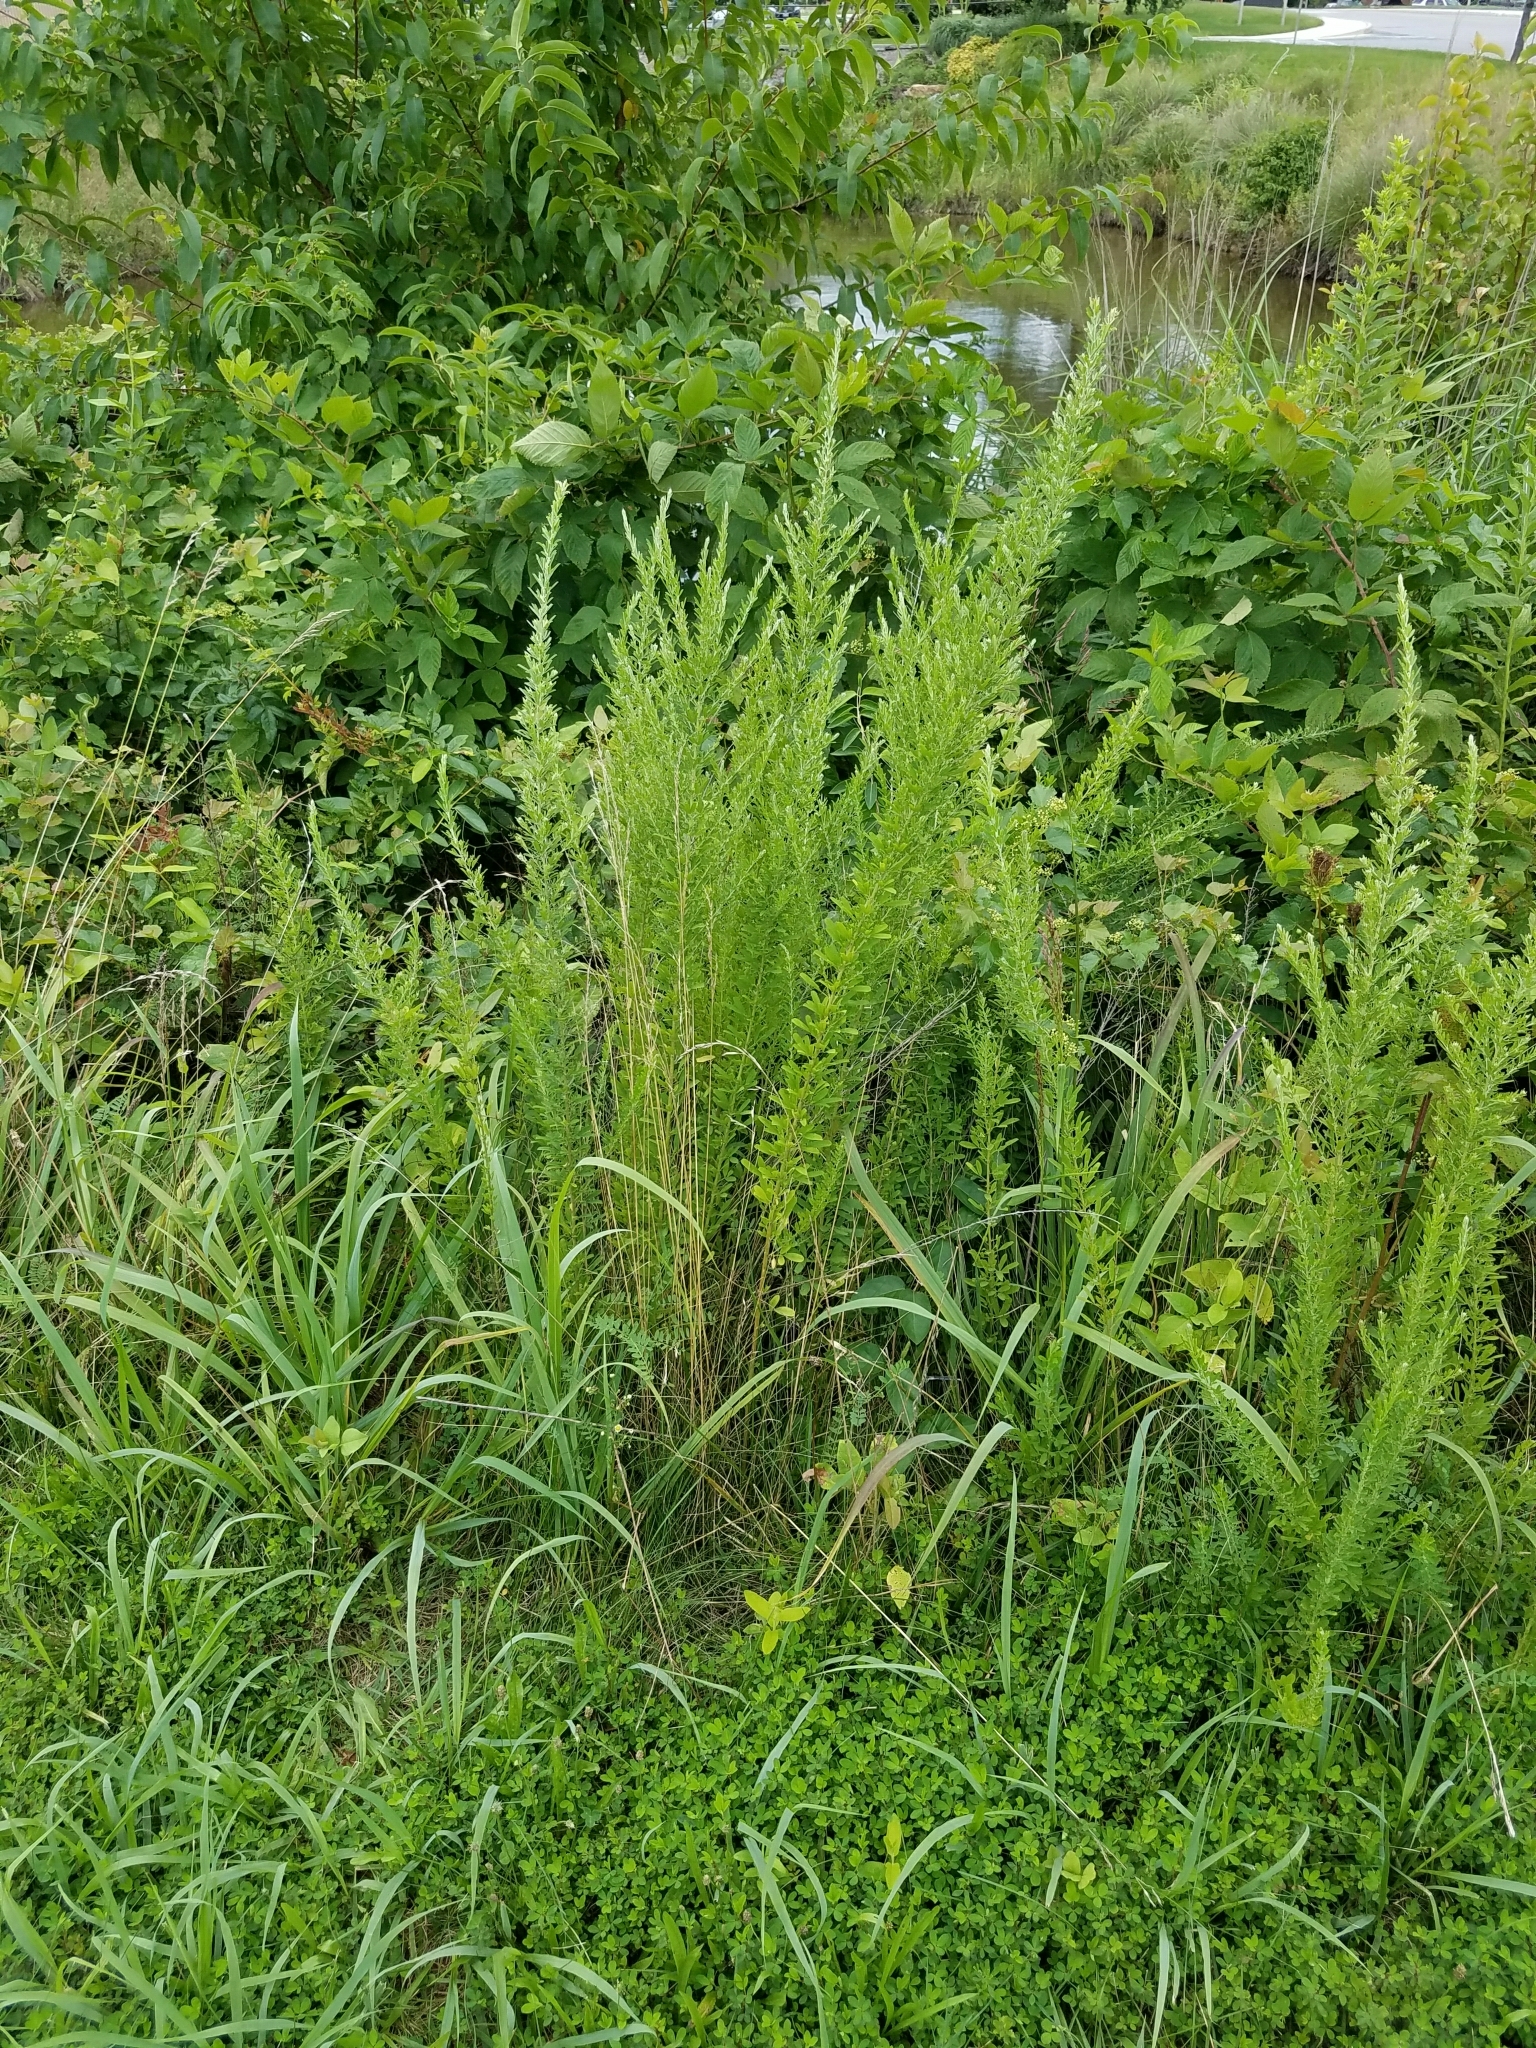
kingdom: Plantae
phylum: Tracheophyta
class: Magnoliopsida
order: Fabales
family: Fabaceae
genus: Lespedeza
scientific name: Lespedeza cuneata
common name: Chinese bush-clover
